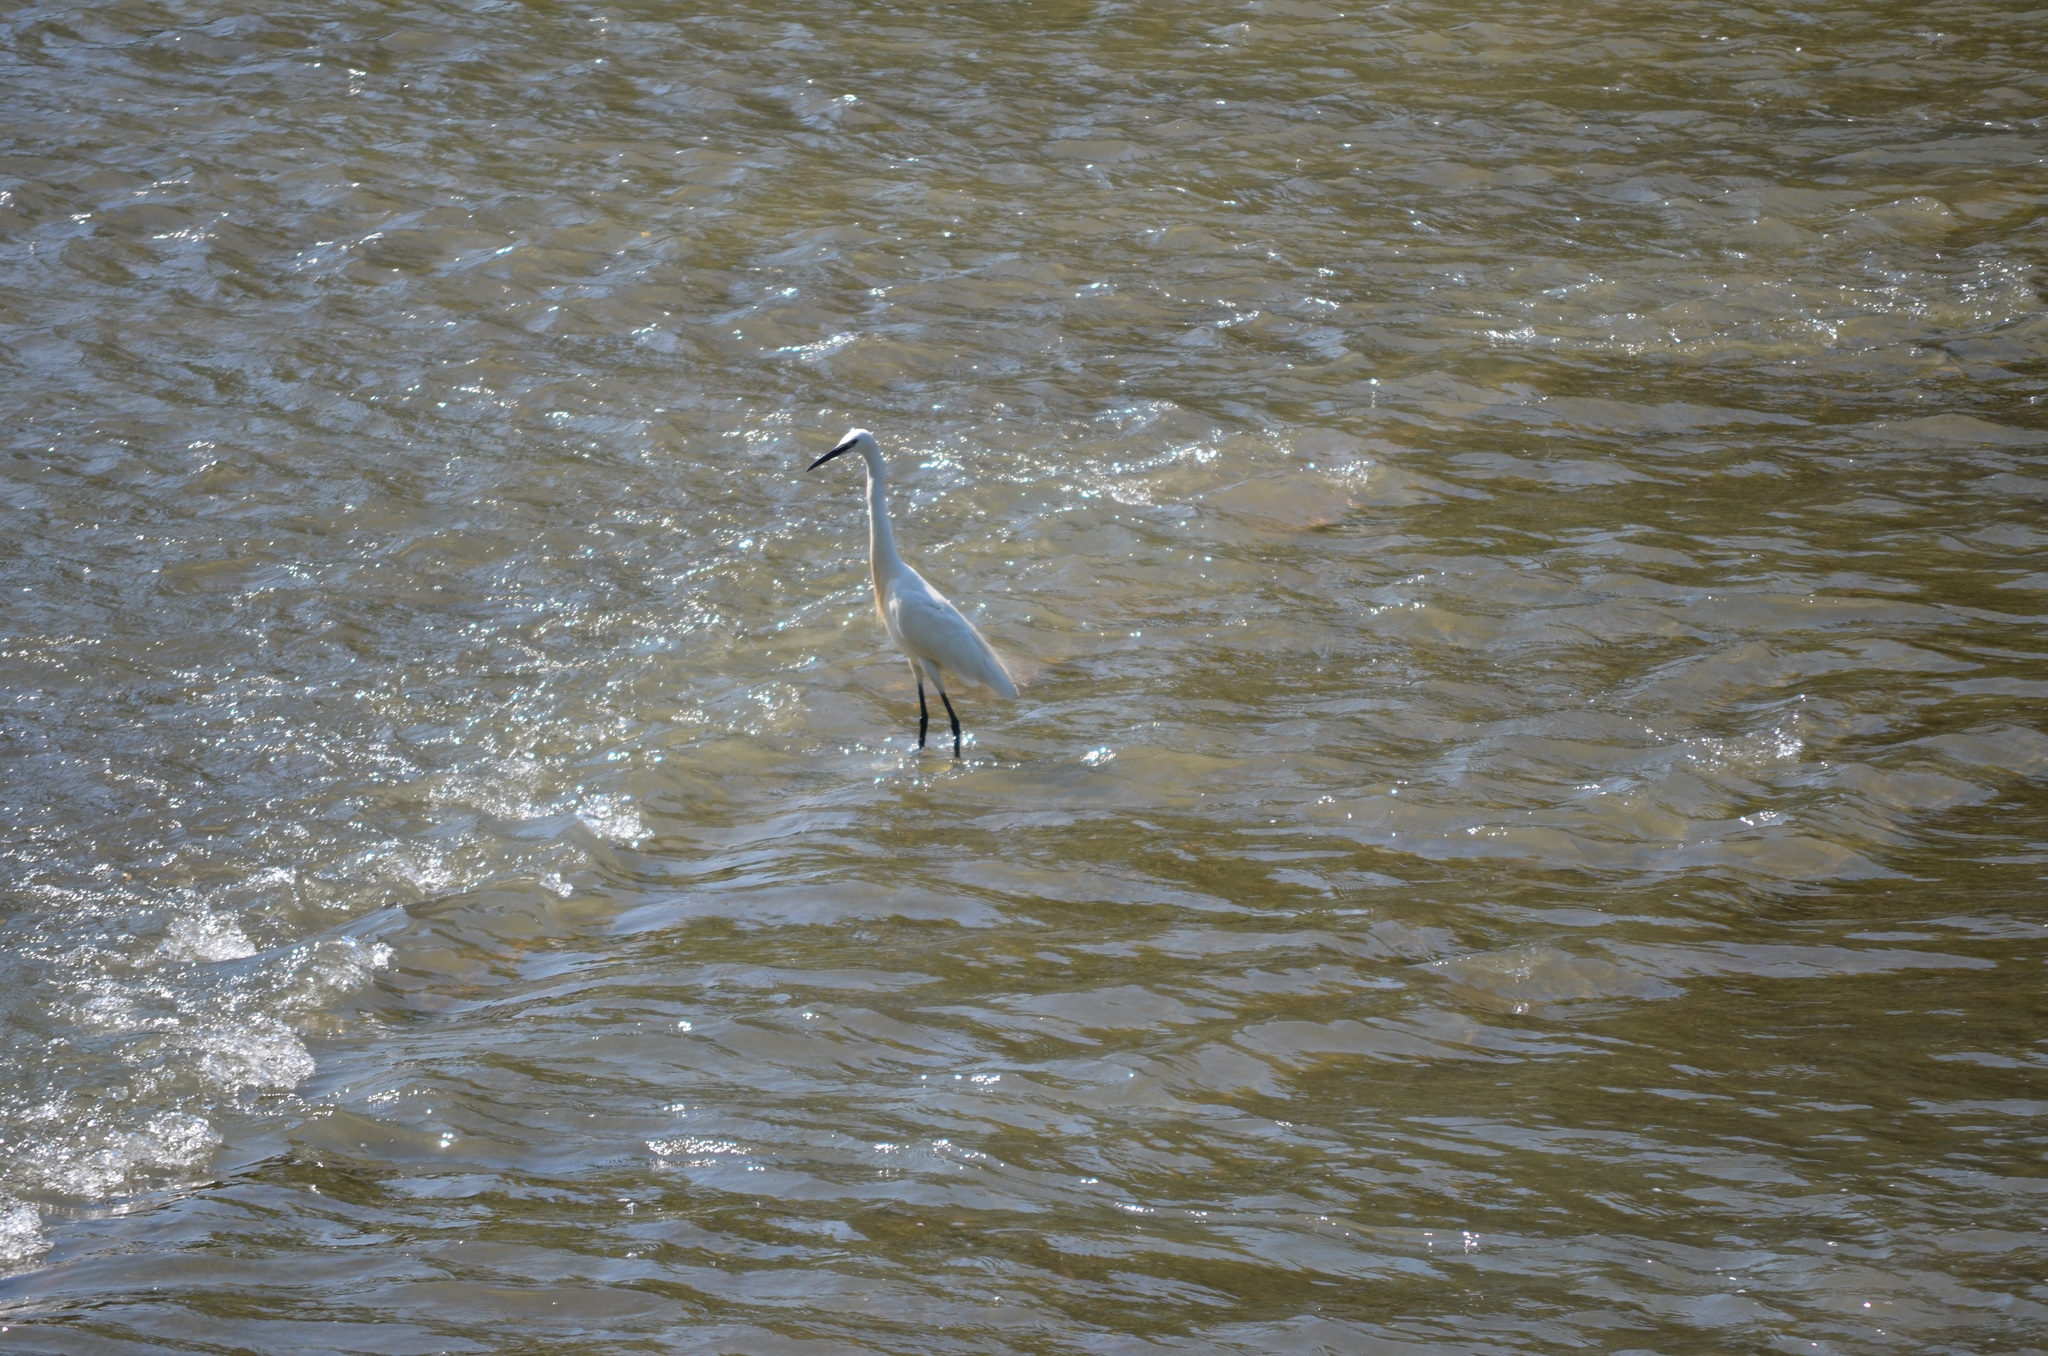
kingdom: Animalia
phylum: Chordata
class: Aves
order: Pelecaniformes
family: Ardeidae
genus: Egretta
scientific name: Egretta garzetta
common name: Little egret
